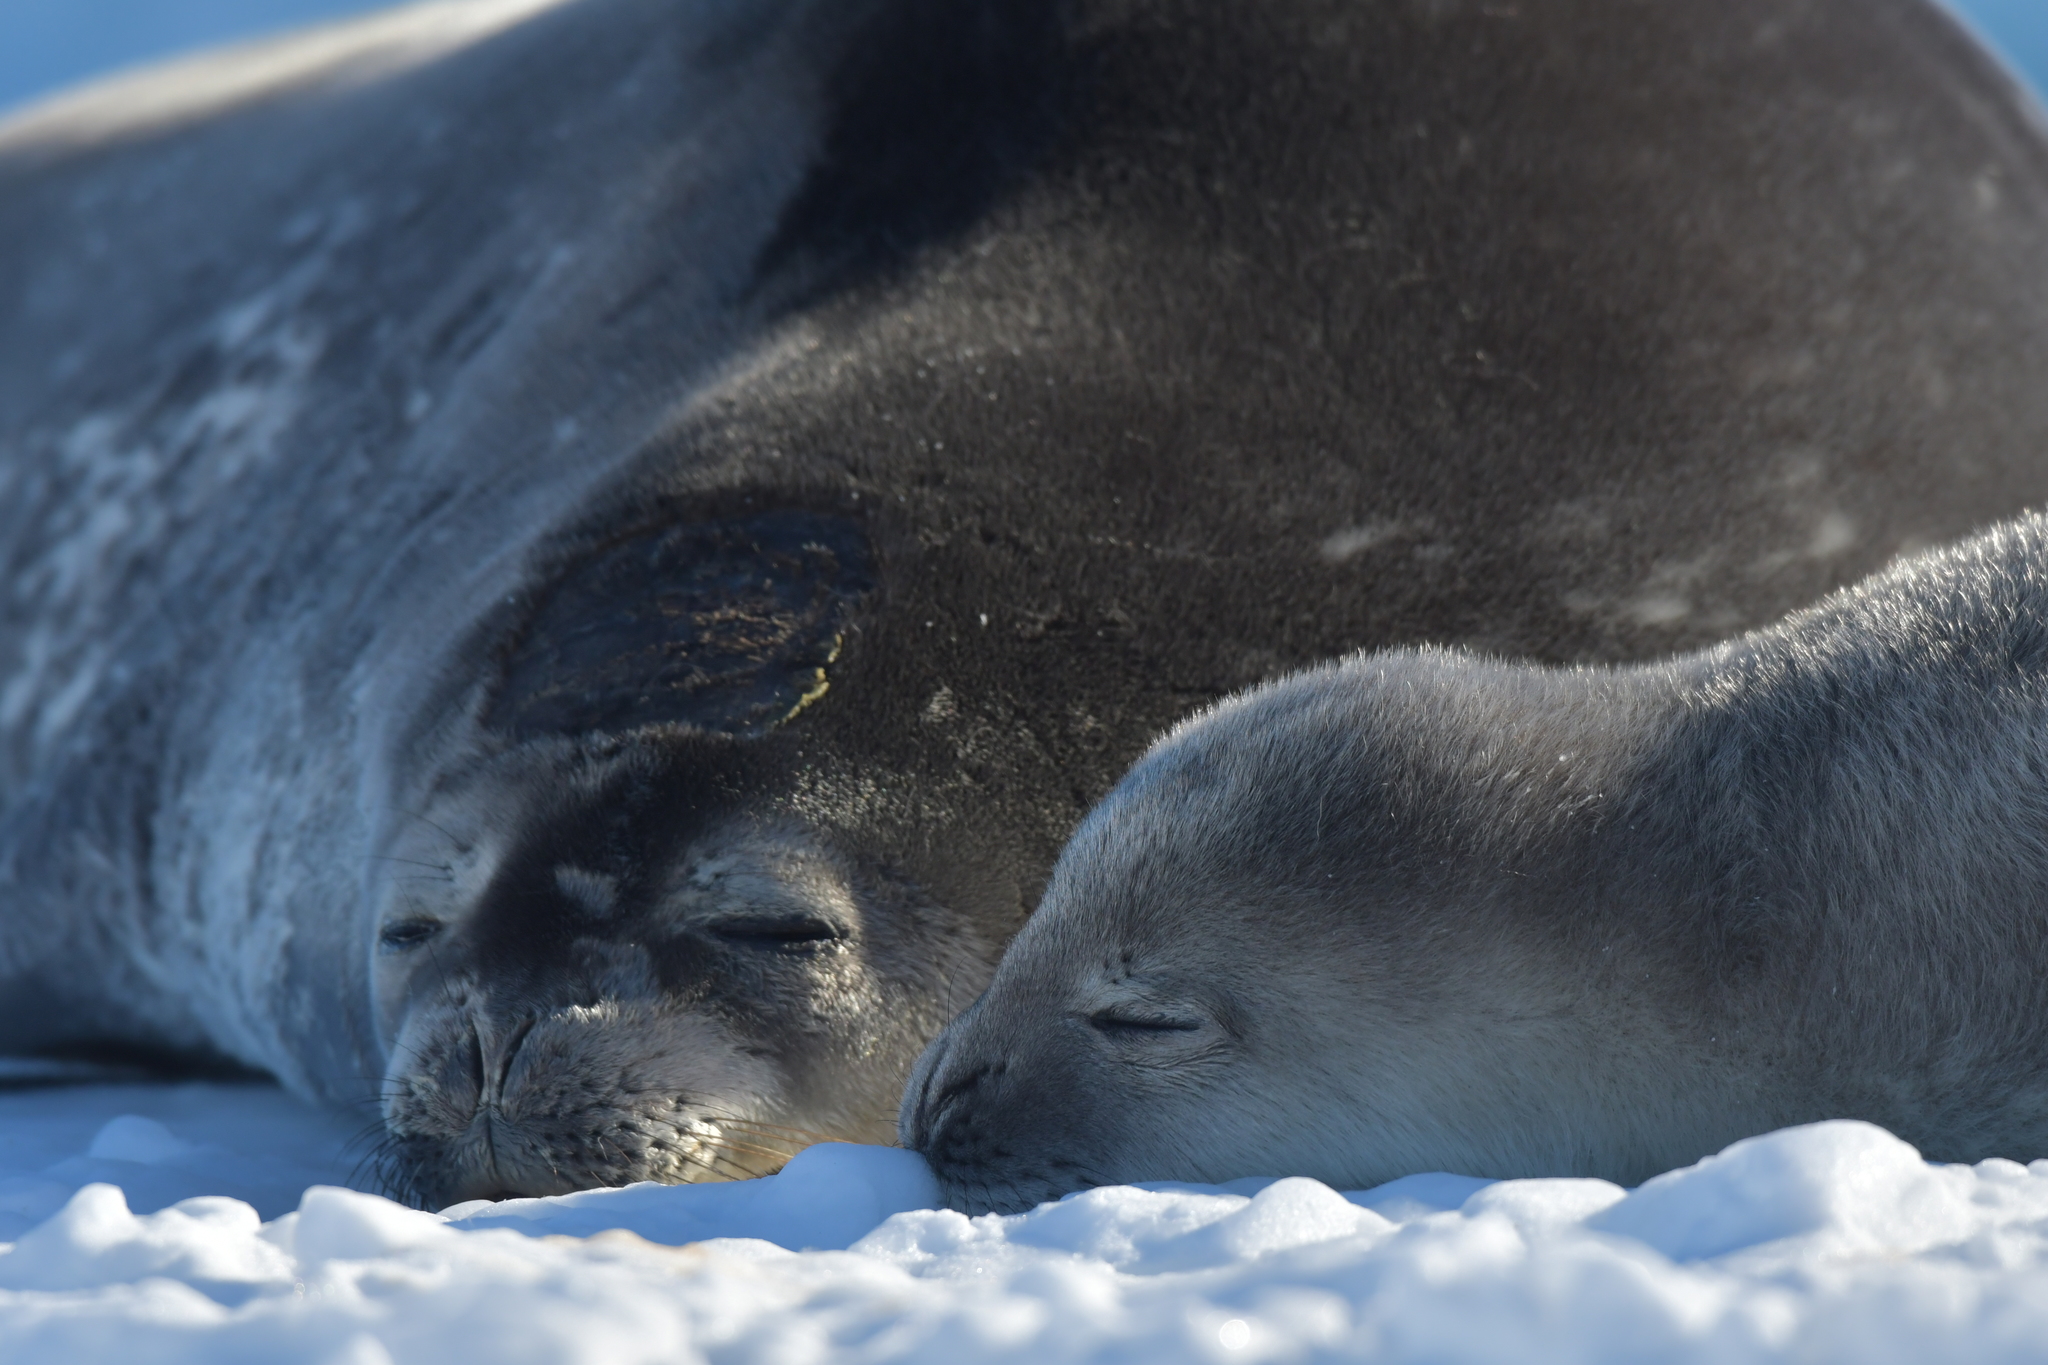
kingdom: Animalia
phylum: Chordata
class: Mammalia
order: Carnivora
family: Phocidae
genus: Leptonychotes
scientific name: Leptonychotes weddellii
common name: Weddell seal
